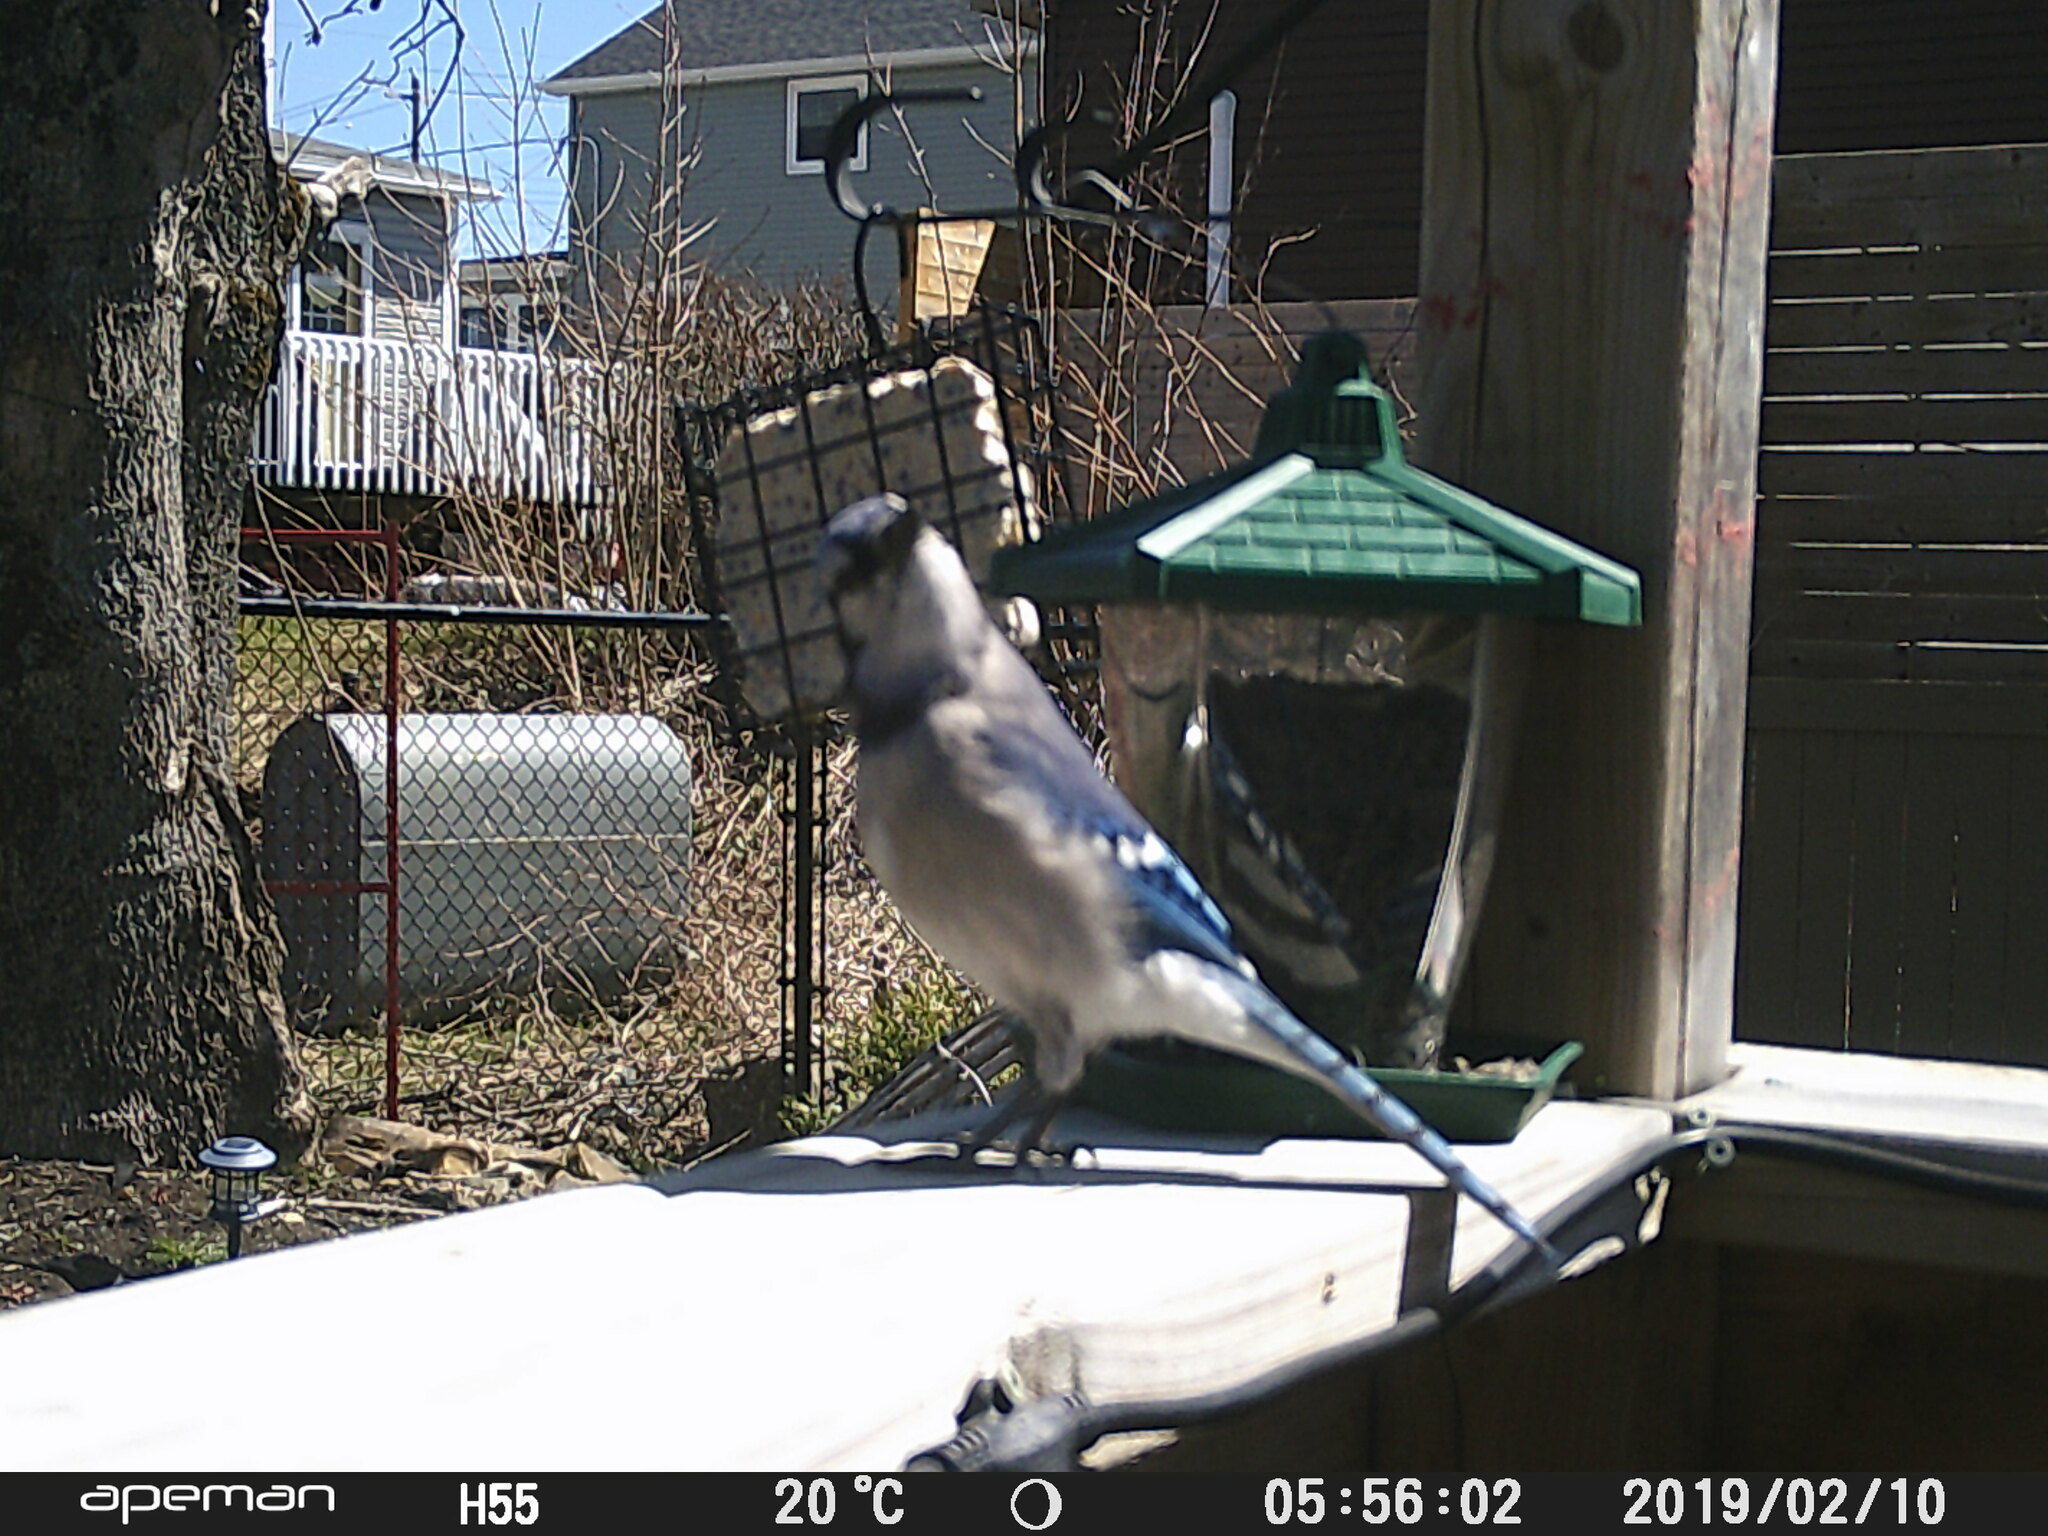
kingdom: Animalia
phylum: Chordata
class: Aves
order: Passeriformes
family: Corvidae
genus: Cyanocitta
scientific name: Cyanocitta cristata
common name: Blue jay
